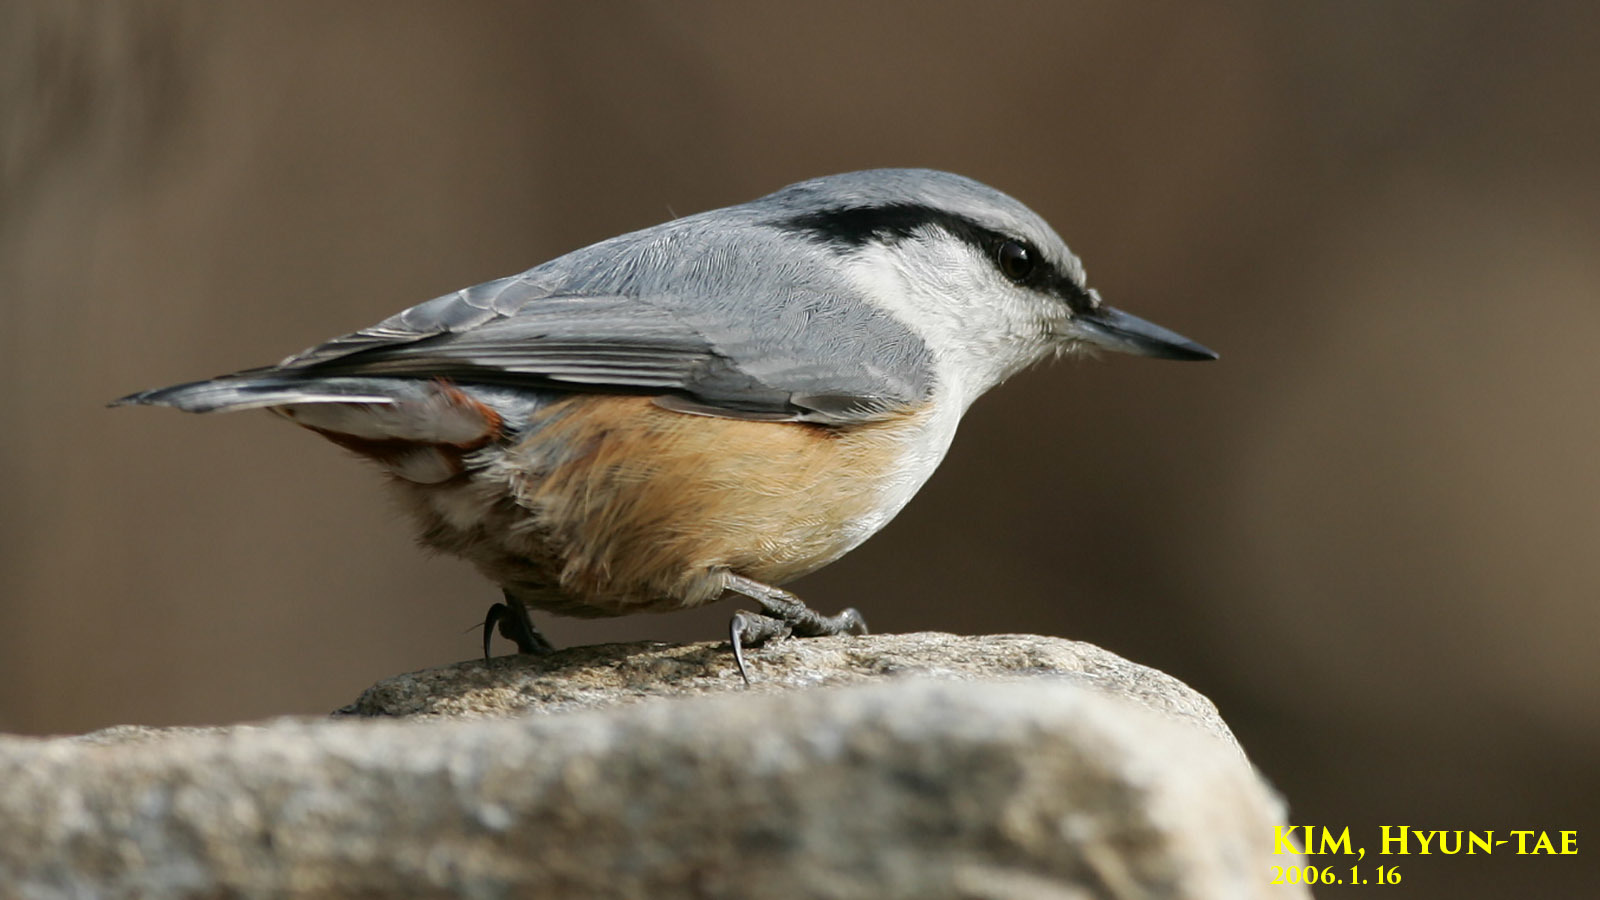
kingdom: Animalia
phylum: Chordata
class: Aves
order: Passeriformes
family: Sittidae
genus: Sitta
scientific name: Sitta europaea
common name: Eurasian nuthatch
